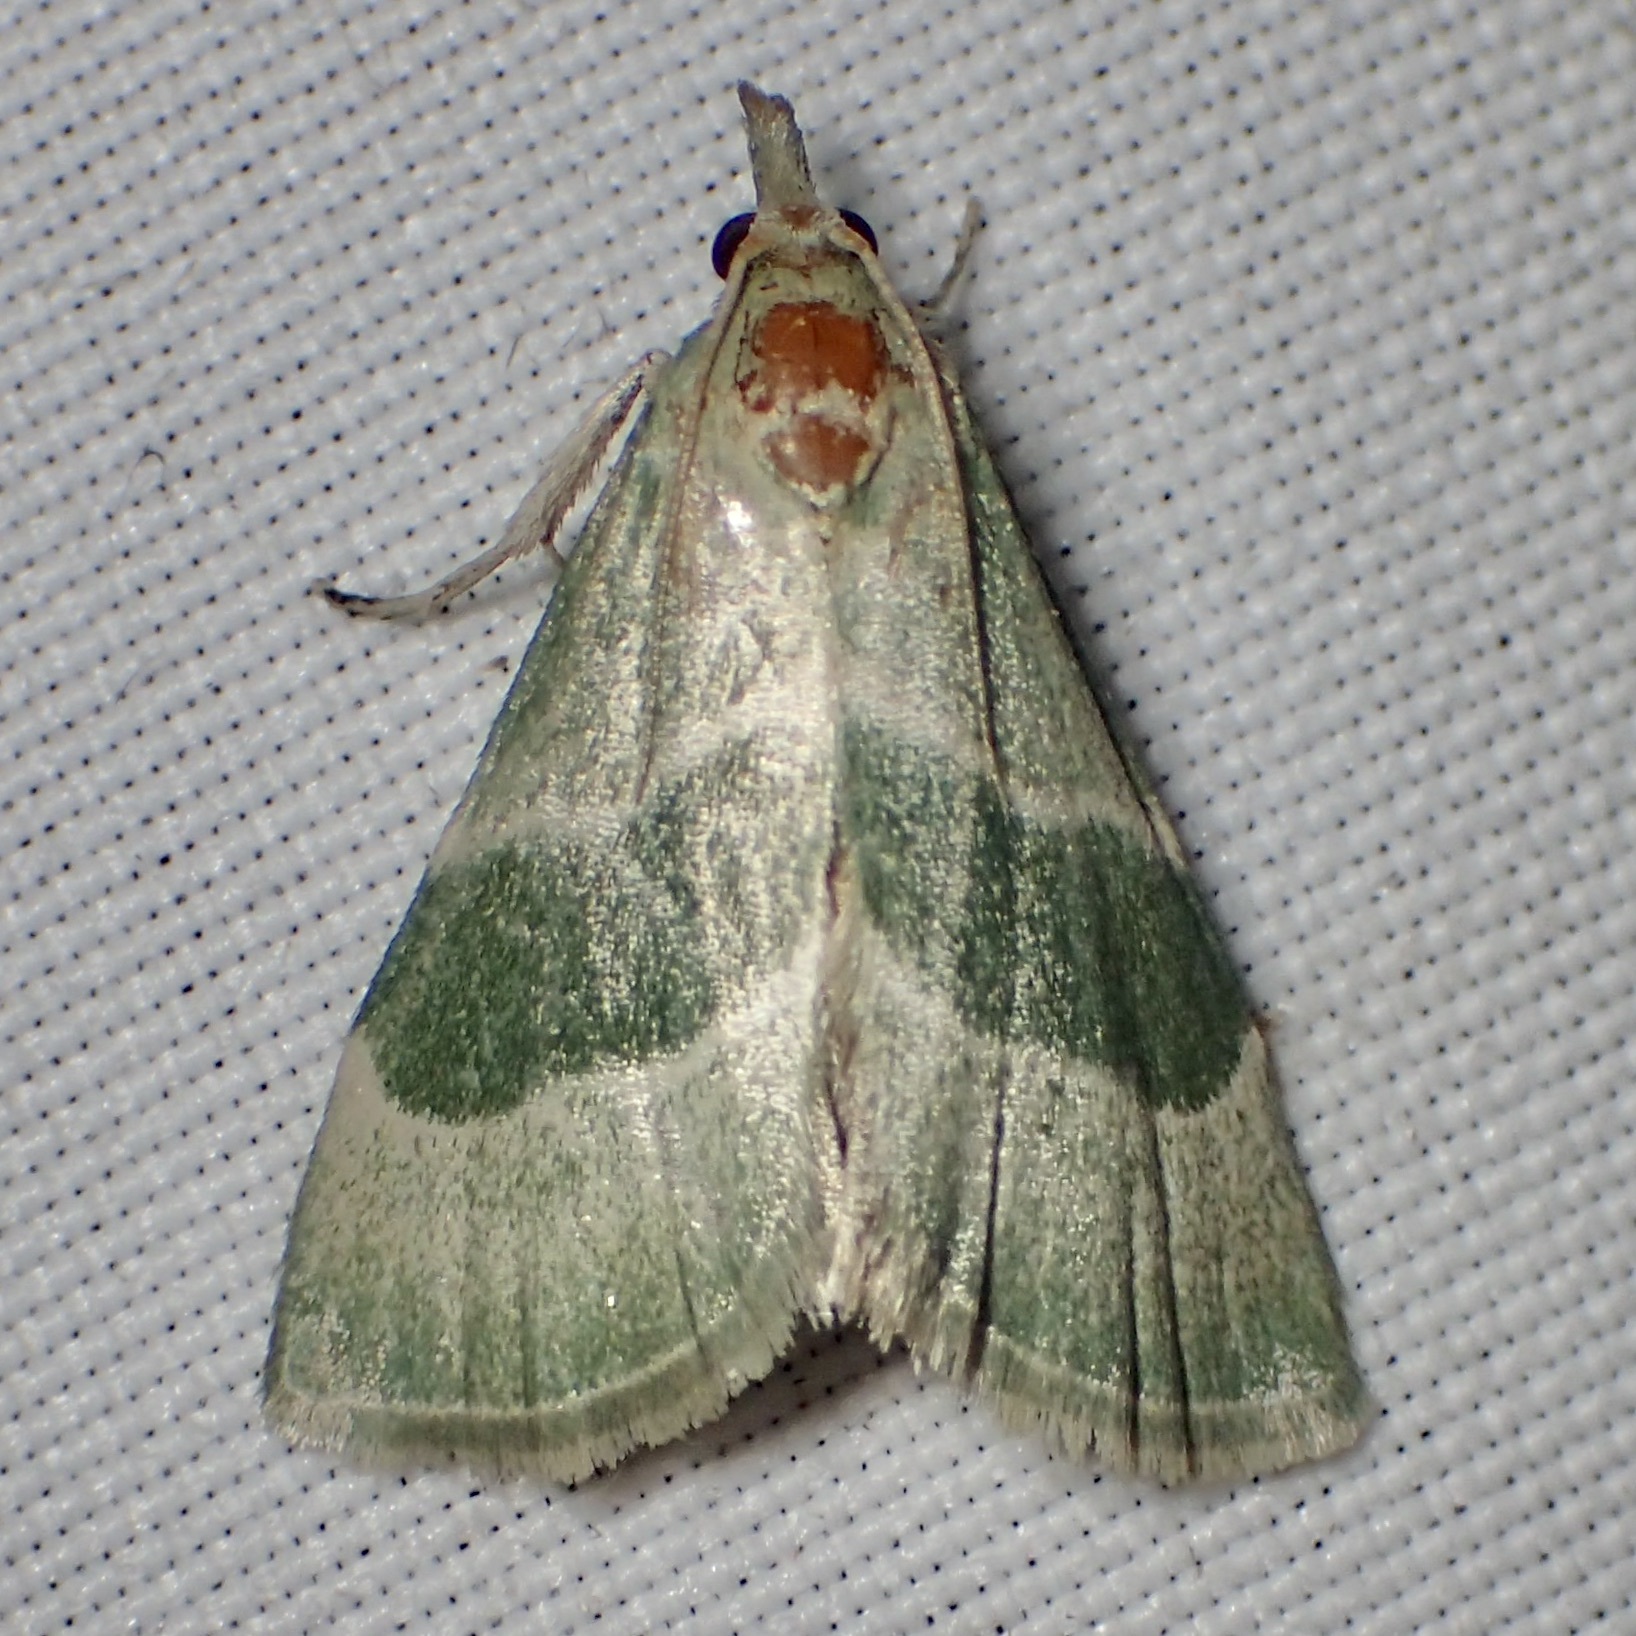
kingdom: Animalia
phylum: Arthropoda
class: Insecta
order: Lepidoptera
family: Pyralidae
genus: Anemosella
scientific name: Anemosella viridalis
